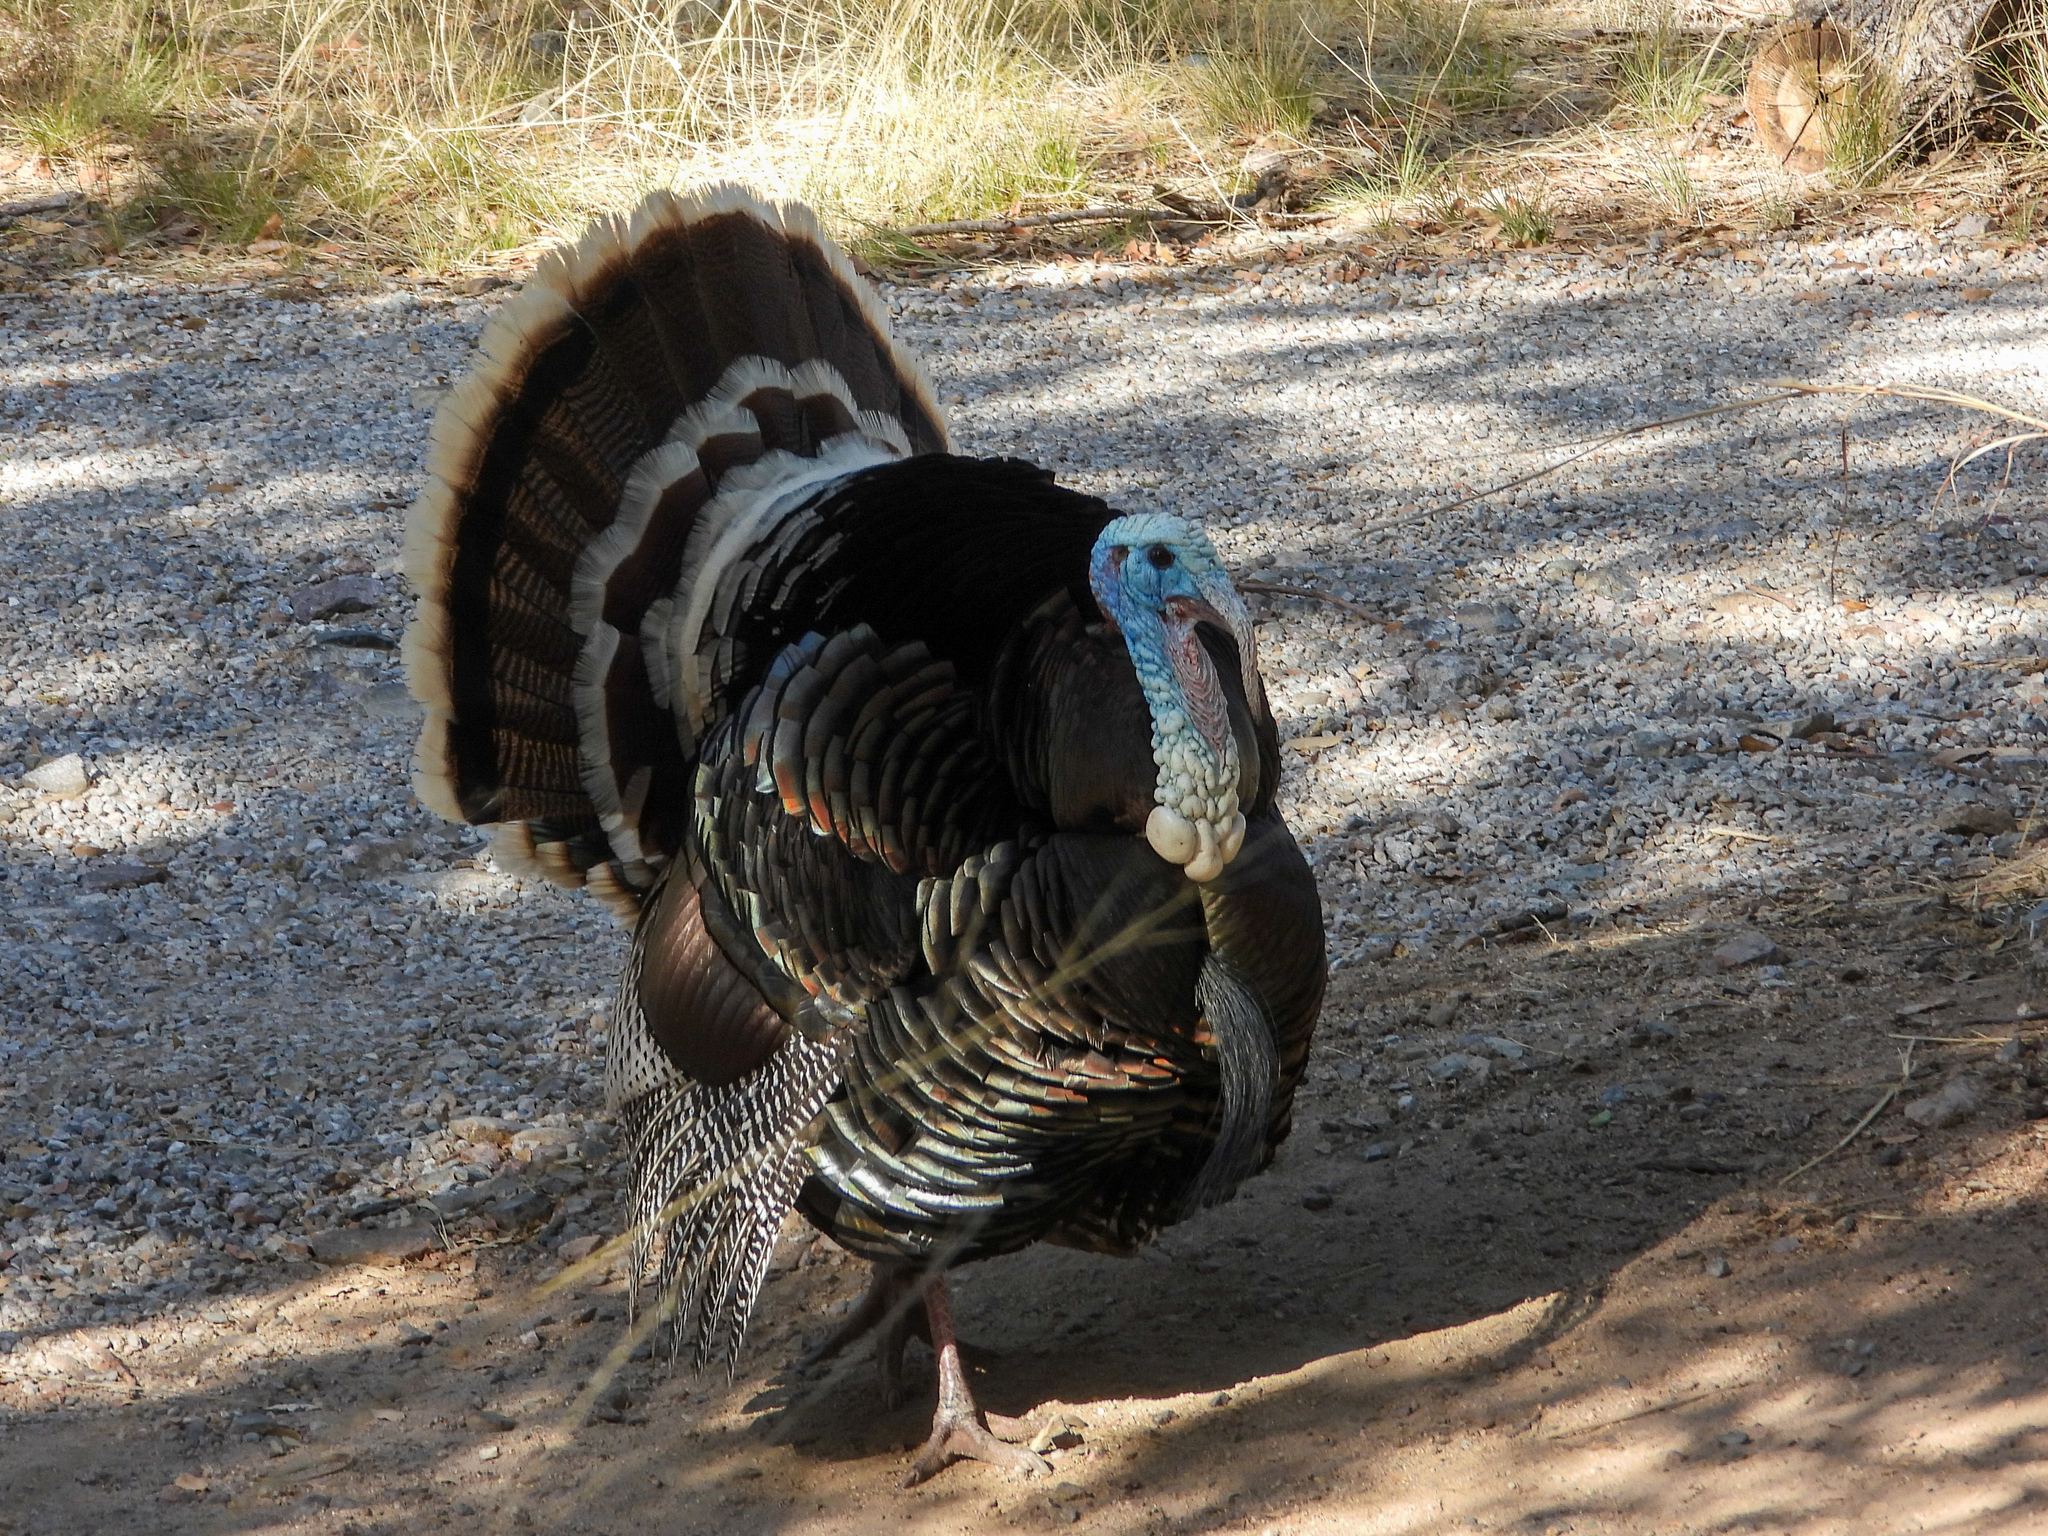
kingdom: Animalia
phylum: Chordata
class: Aves
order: Galliformes
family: Phasianidae
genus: Meleagris
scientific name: Meleagris gallopavo
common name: Wild turkey
